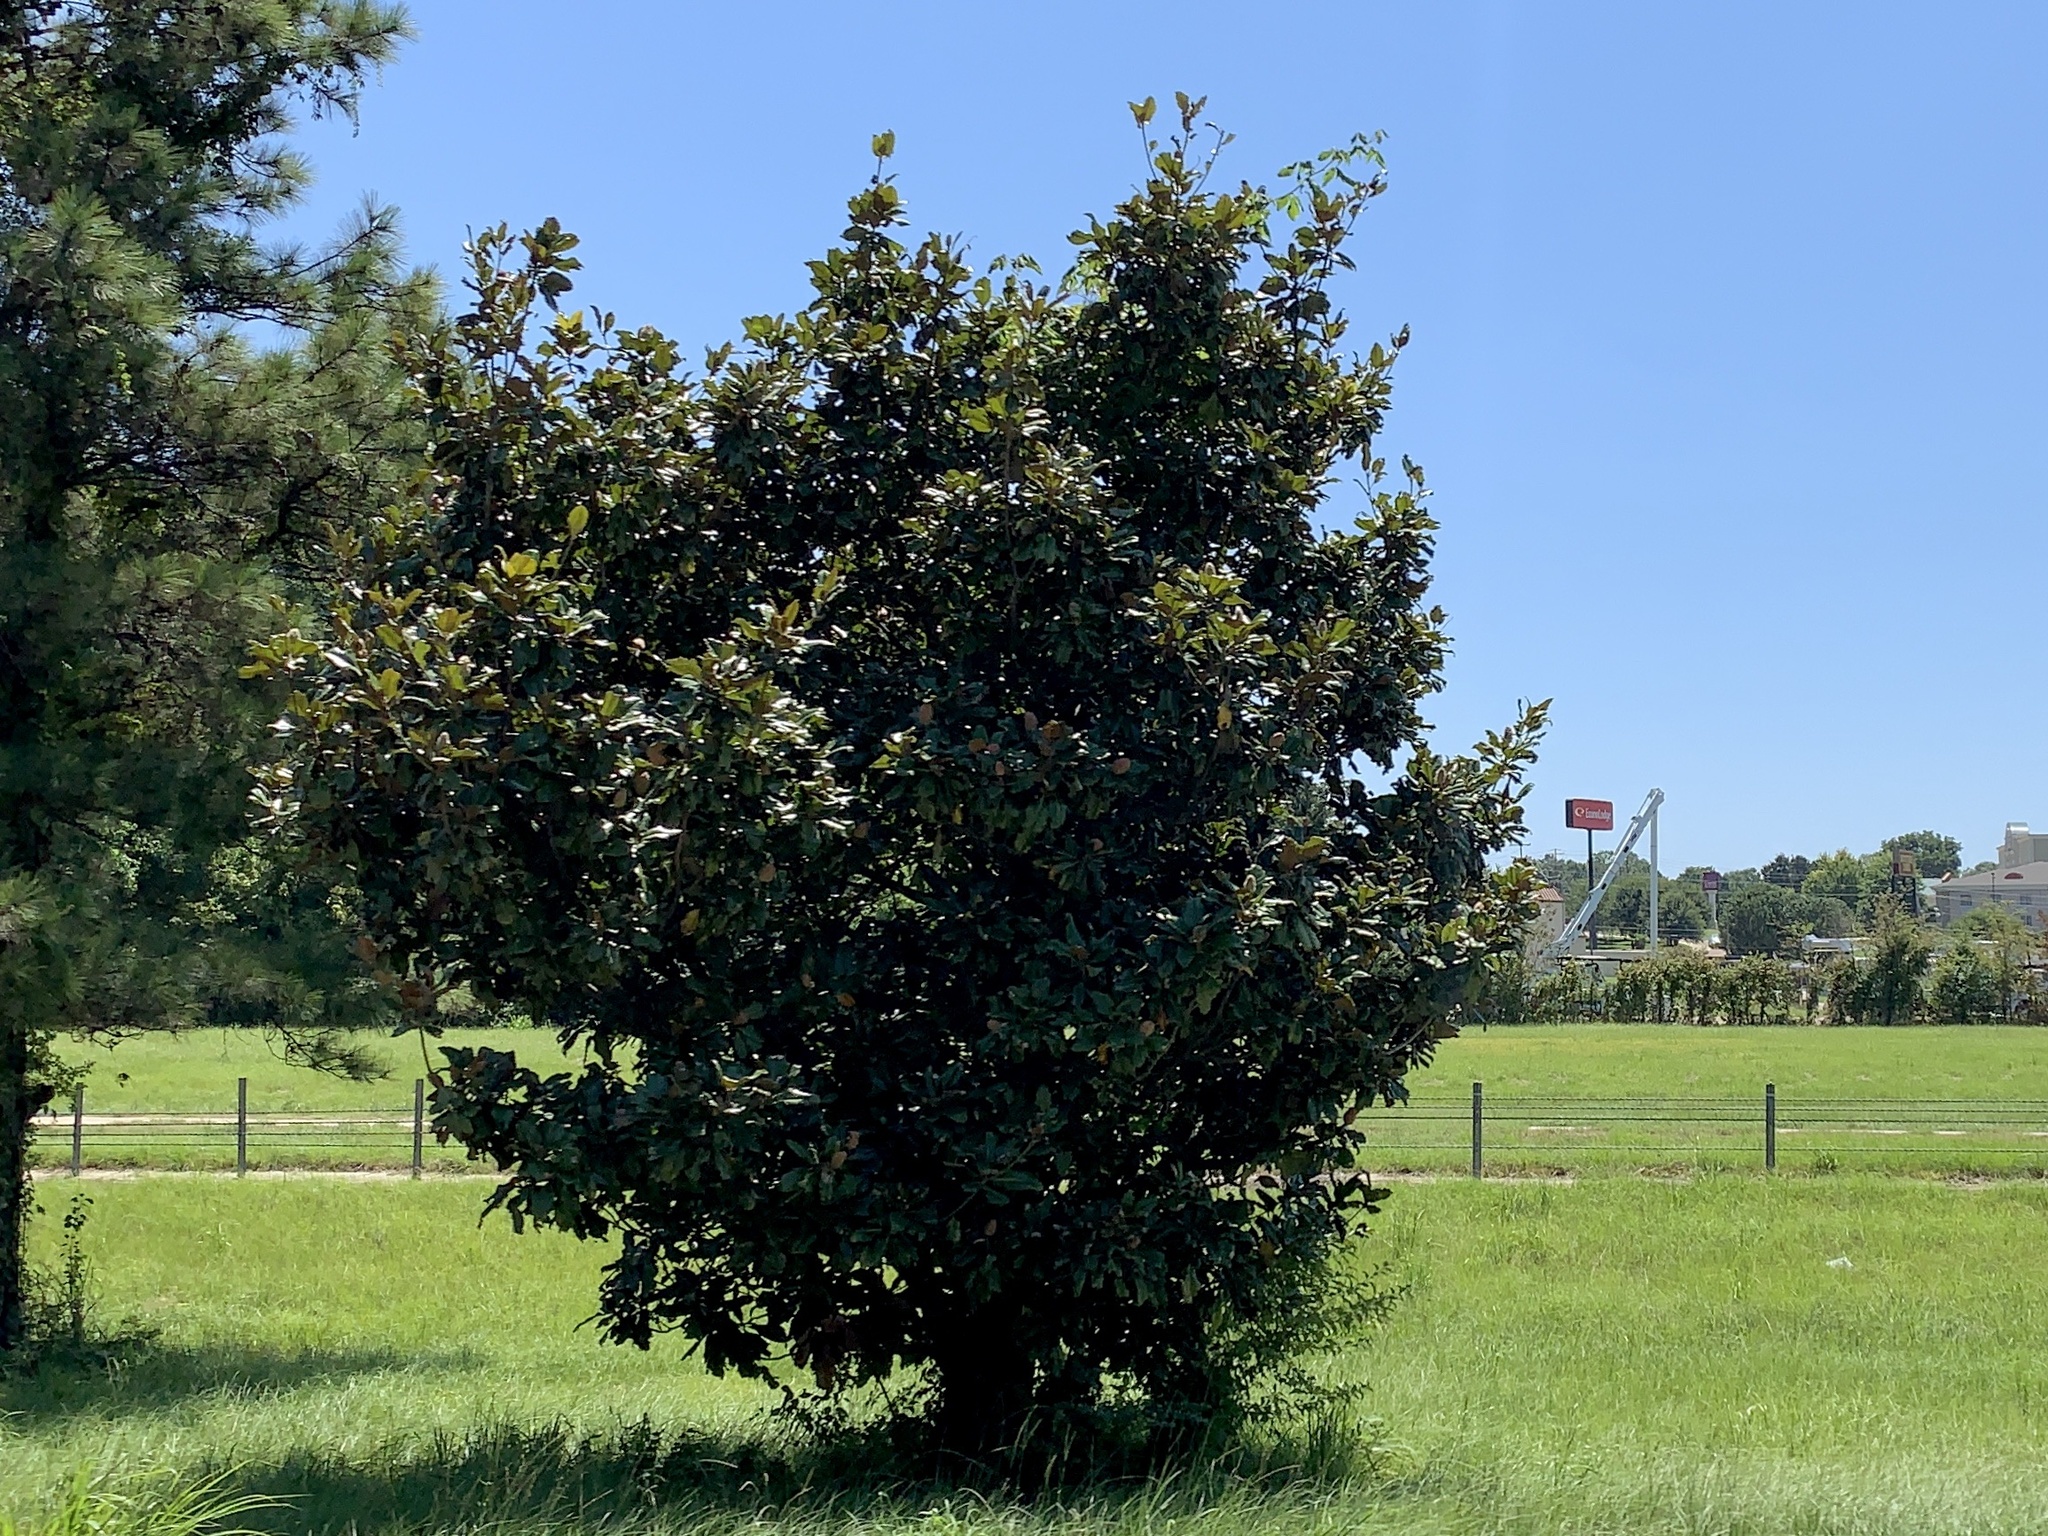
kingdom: Plantae
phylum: Tracheophyta
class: Magnoliopsida
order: Magnoliales
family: Magnoliaceae
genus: Magnolia
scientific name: Magnolia grandiflora
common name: Southern magnolia
